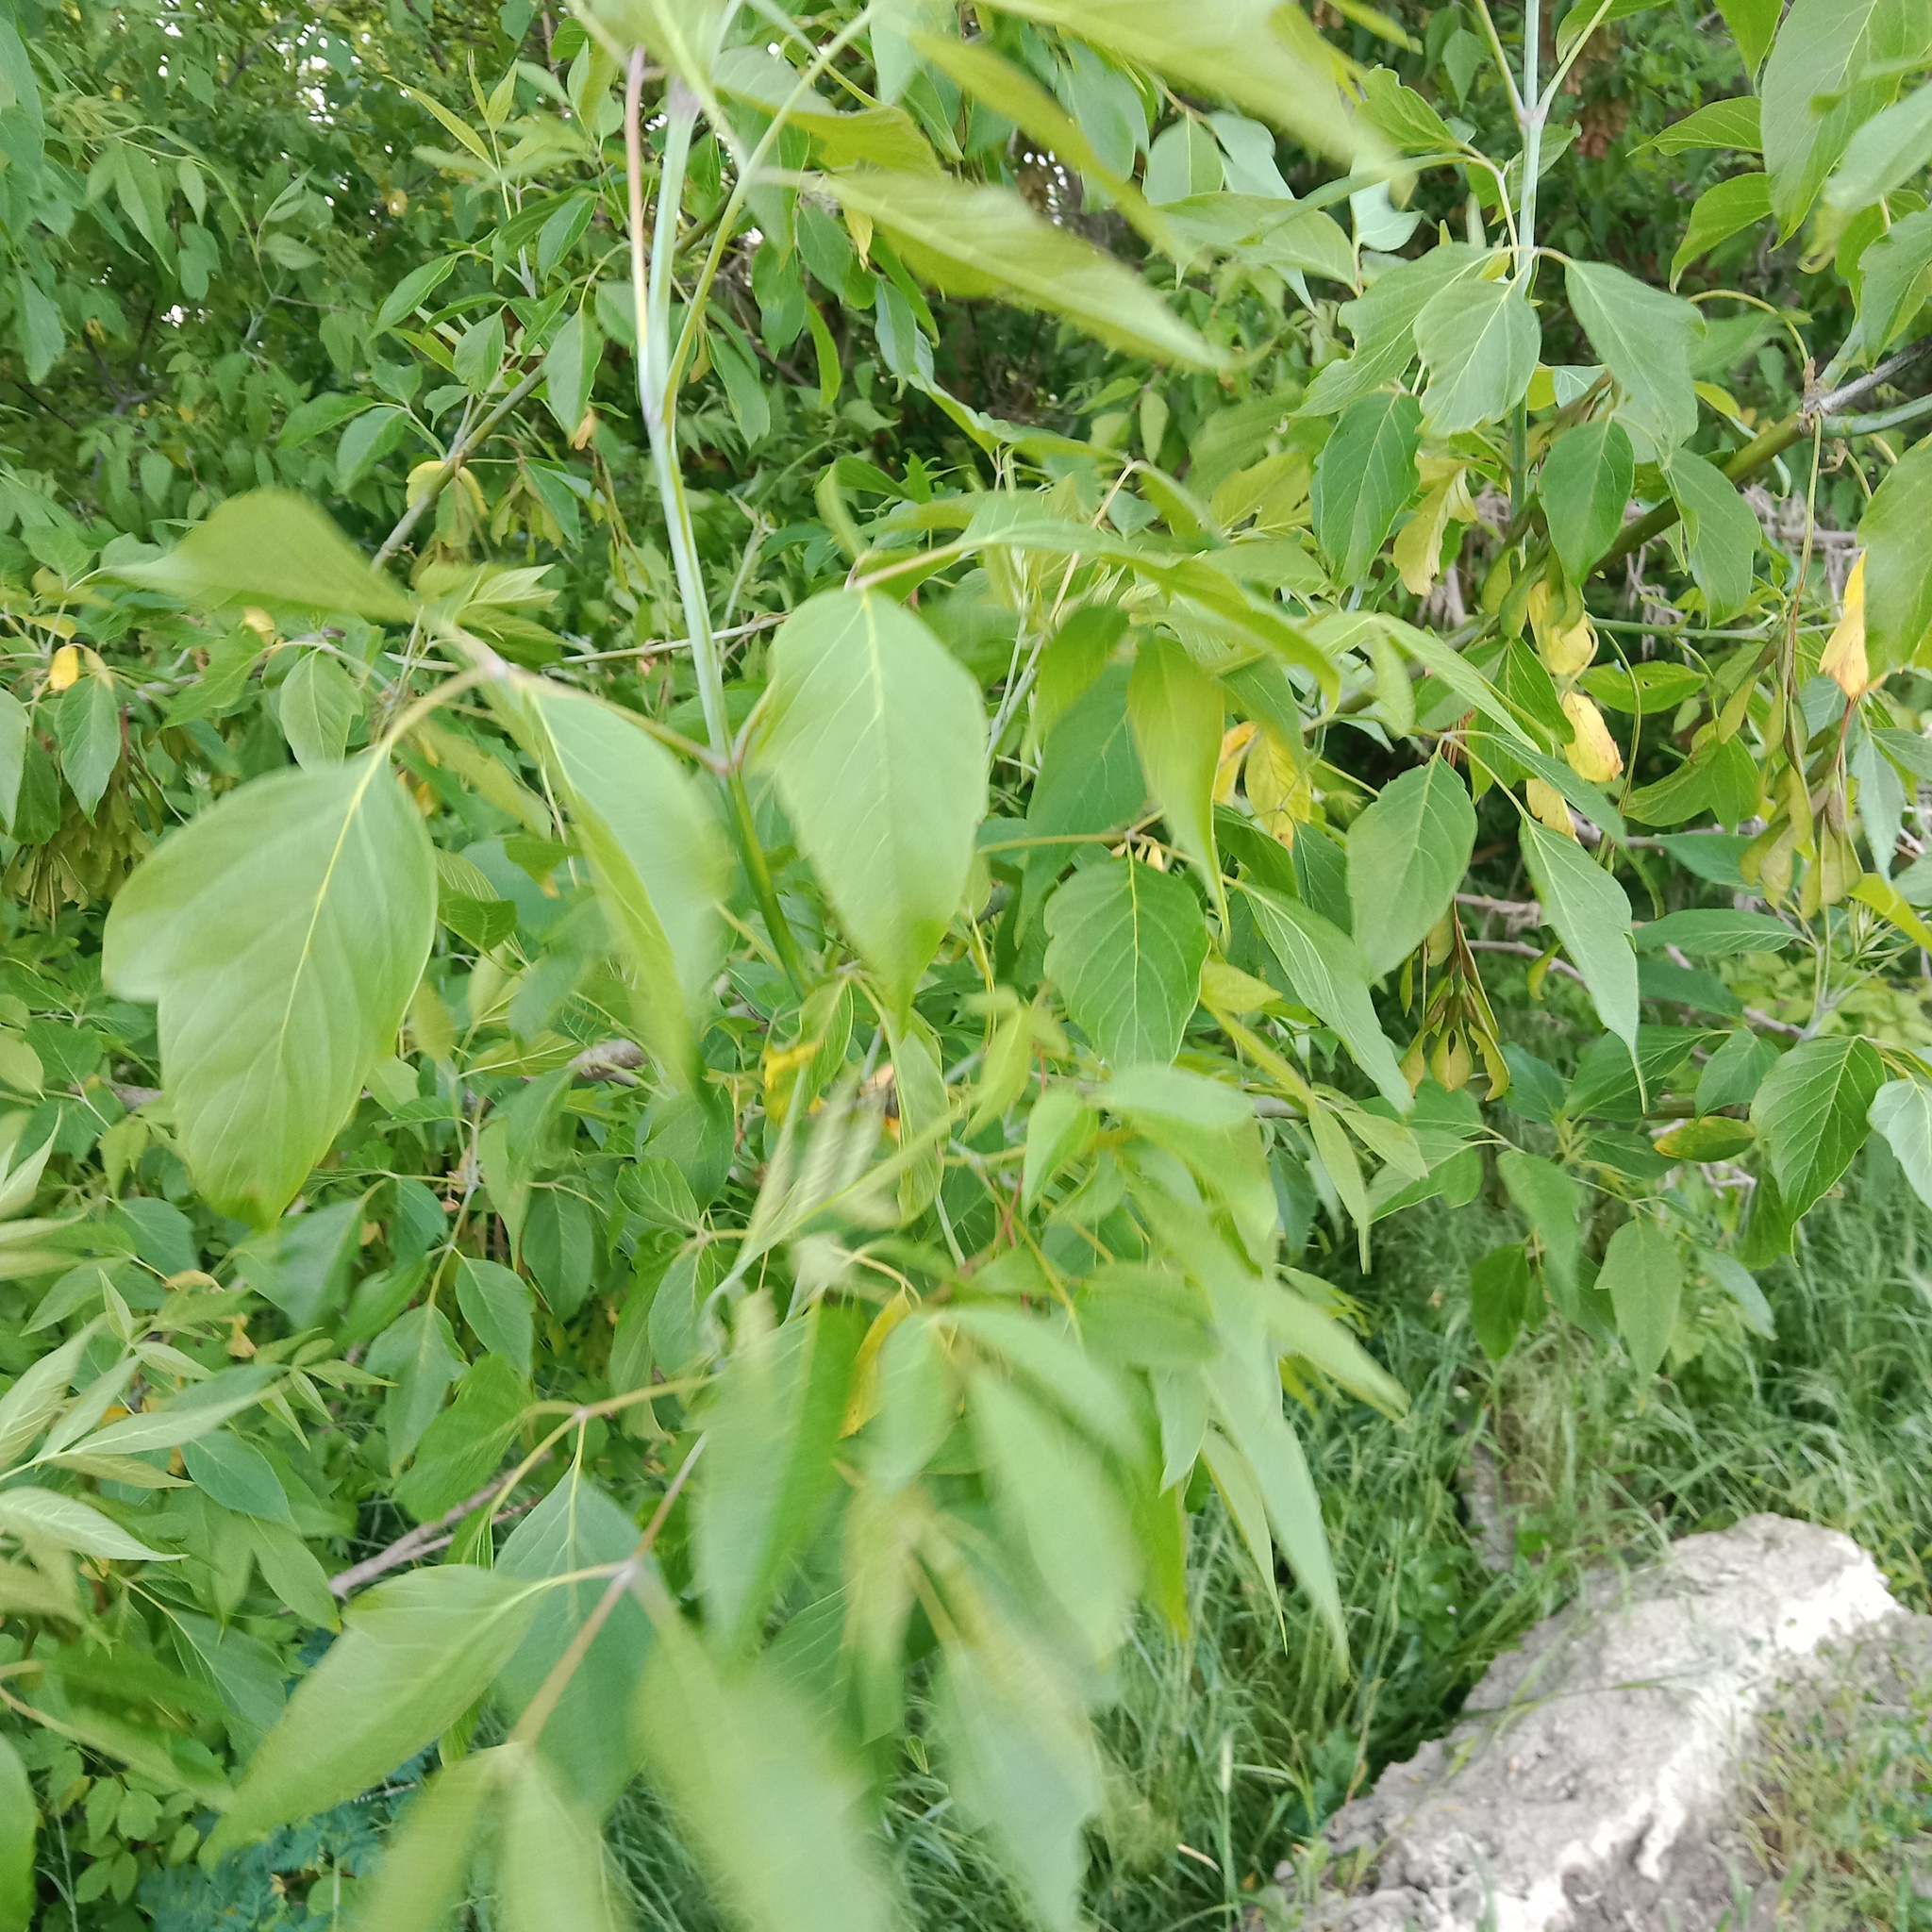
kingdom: Plantae
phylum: Tracheophyta
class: Magnoliopsida
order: Sapindales
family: Sapindaceae
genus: Acer
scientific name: Acer negundo
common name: Ashleaf maple
